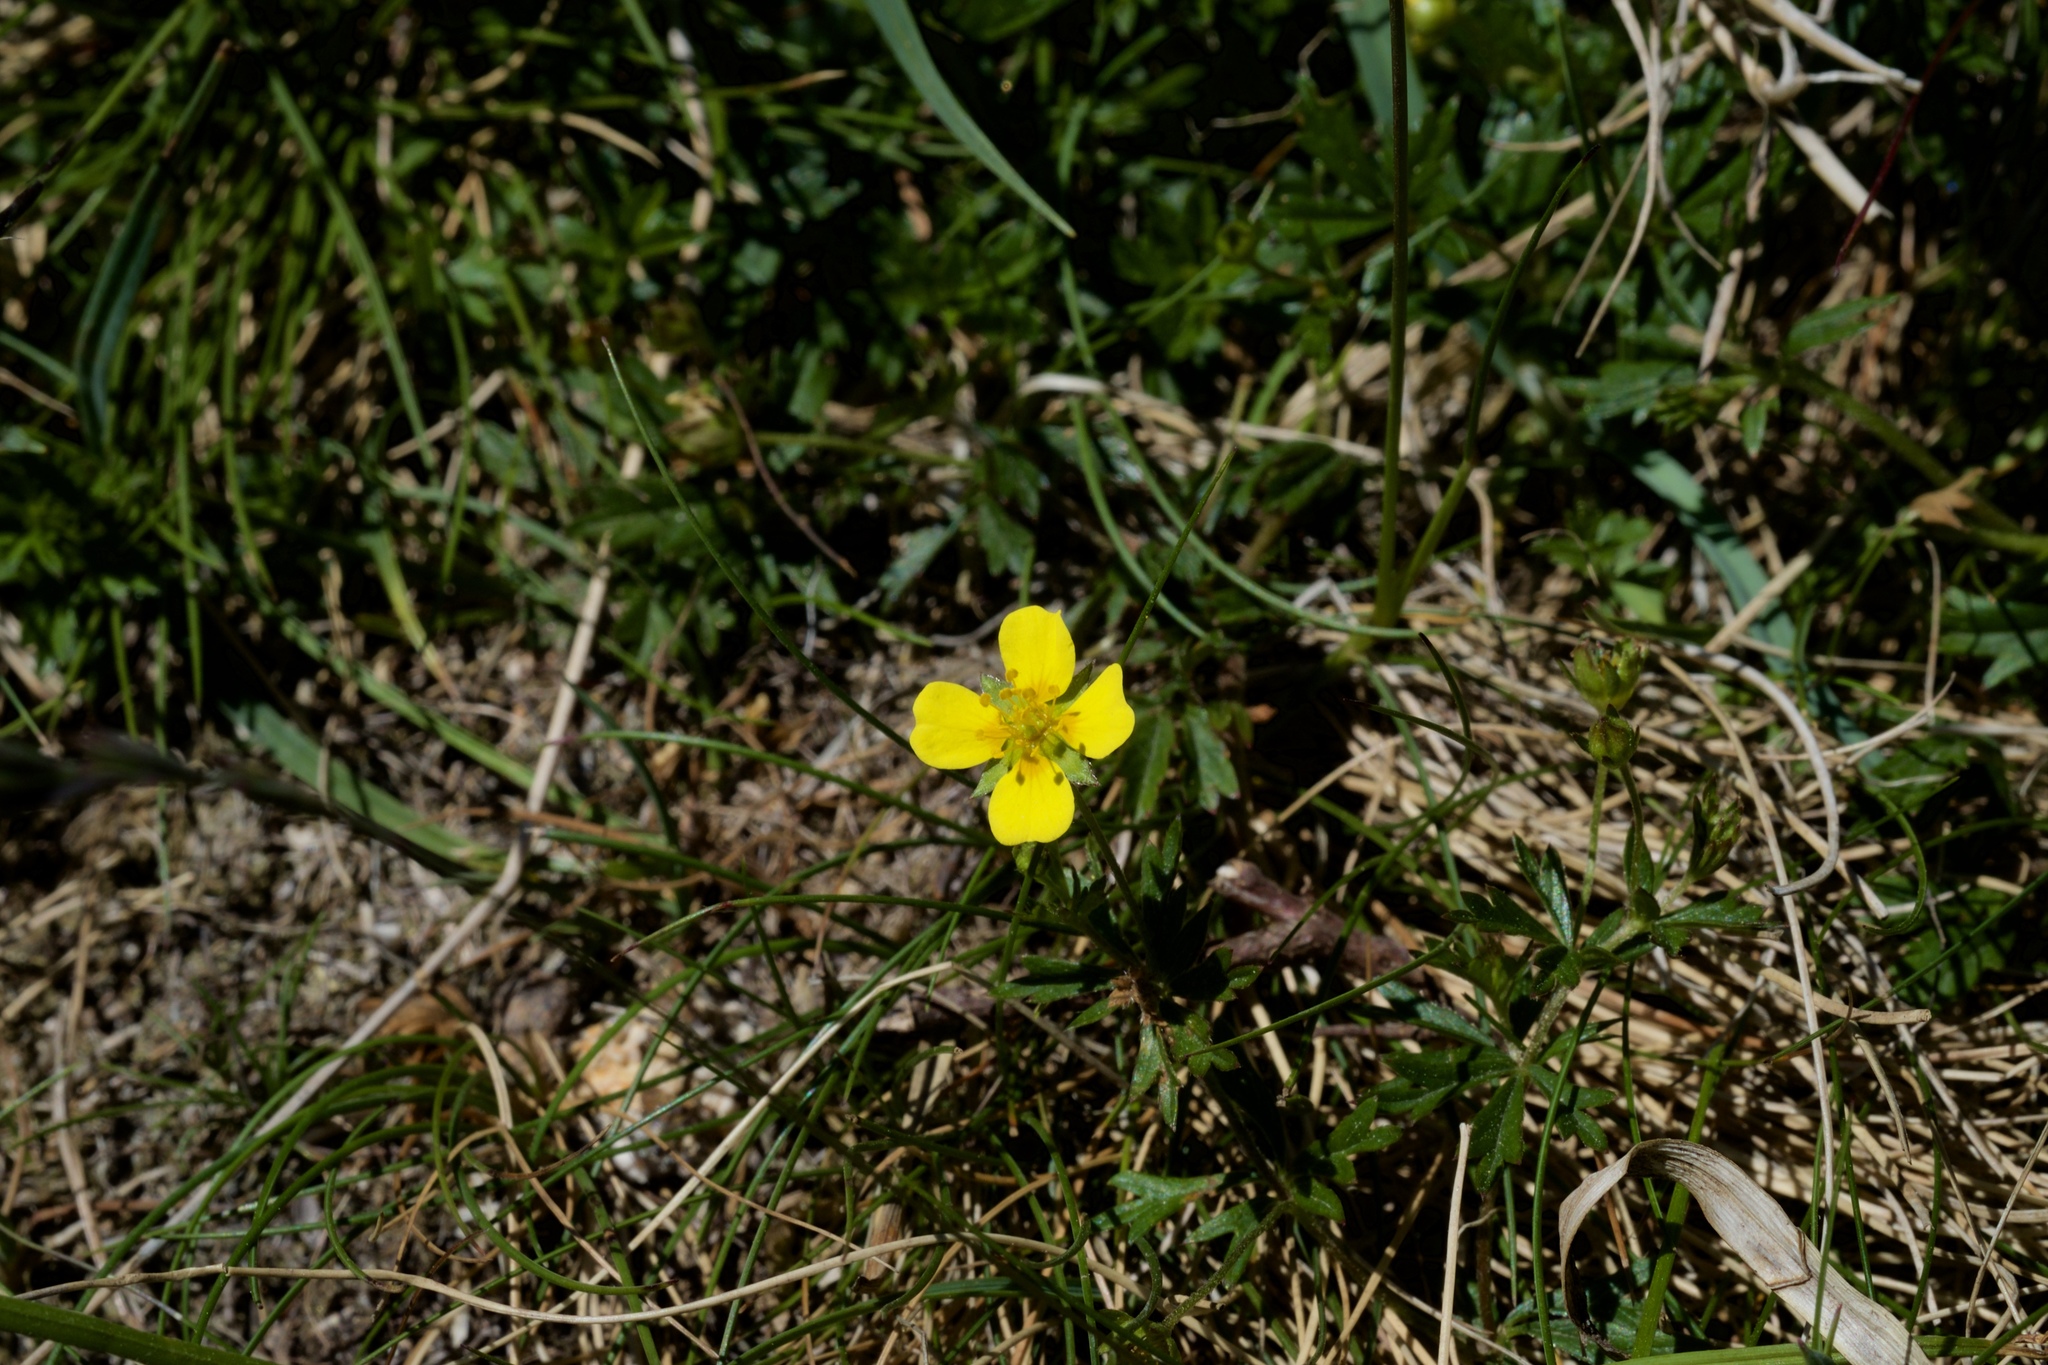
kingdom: Plantae
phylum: Tracheophyta
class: Magnoliopsida
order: Rosales
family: Rosaceae
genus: Potentilla
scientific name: Potentilla erecta
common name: Tormentil
